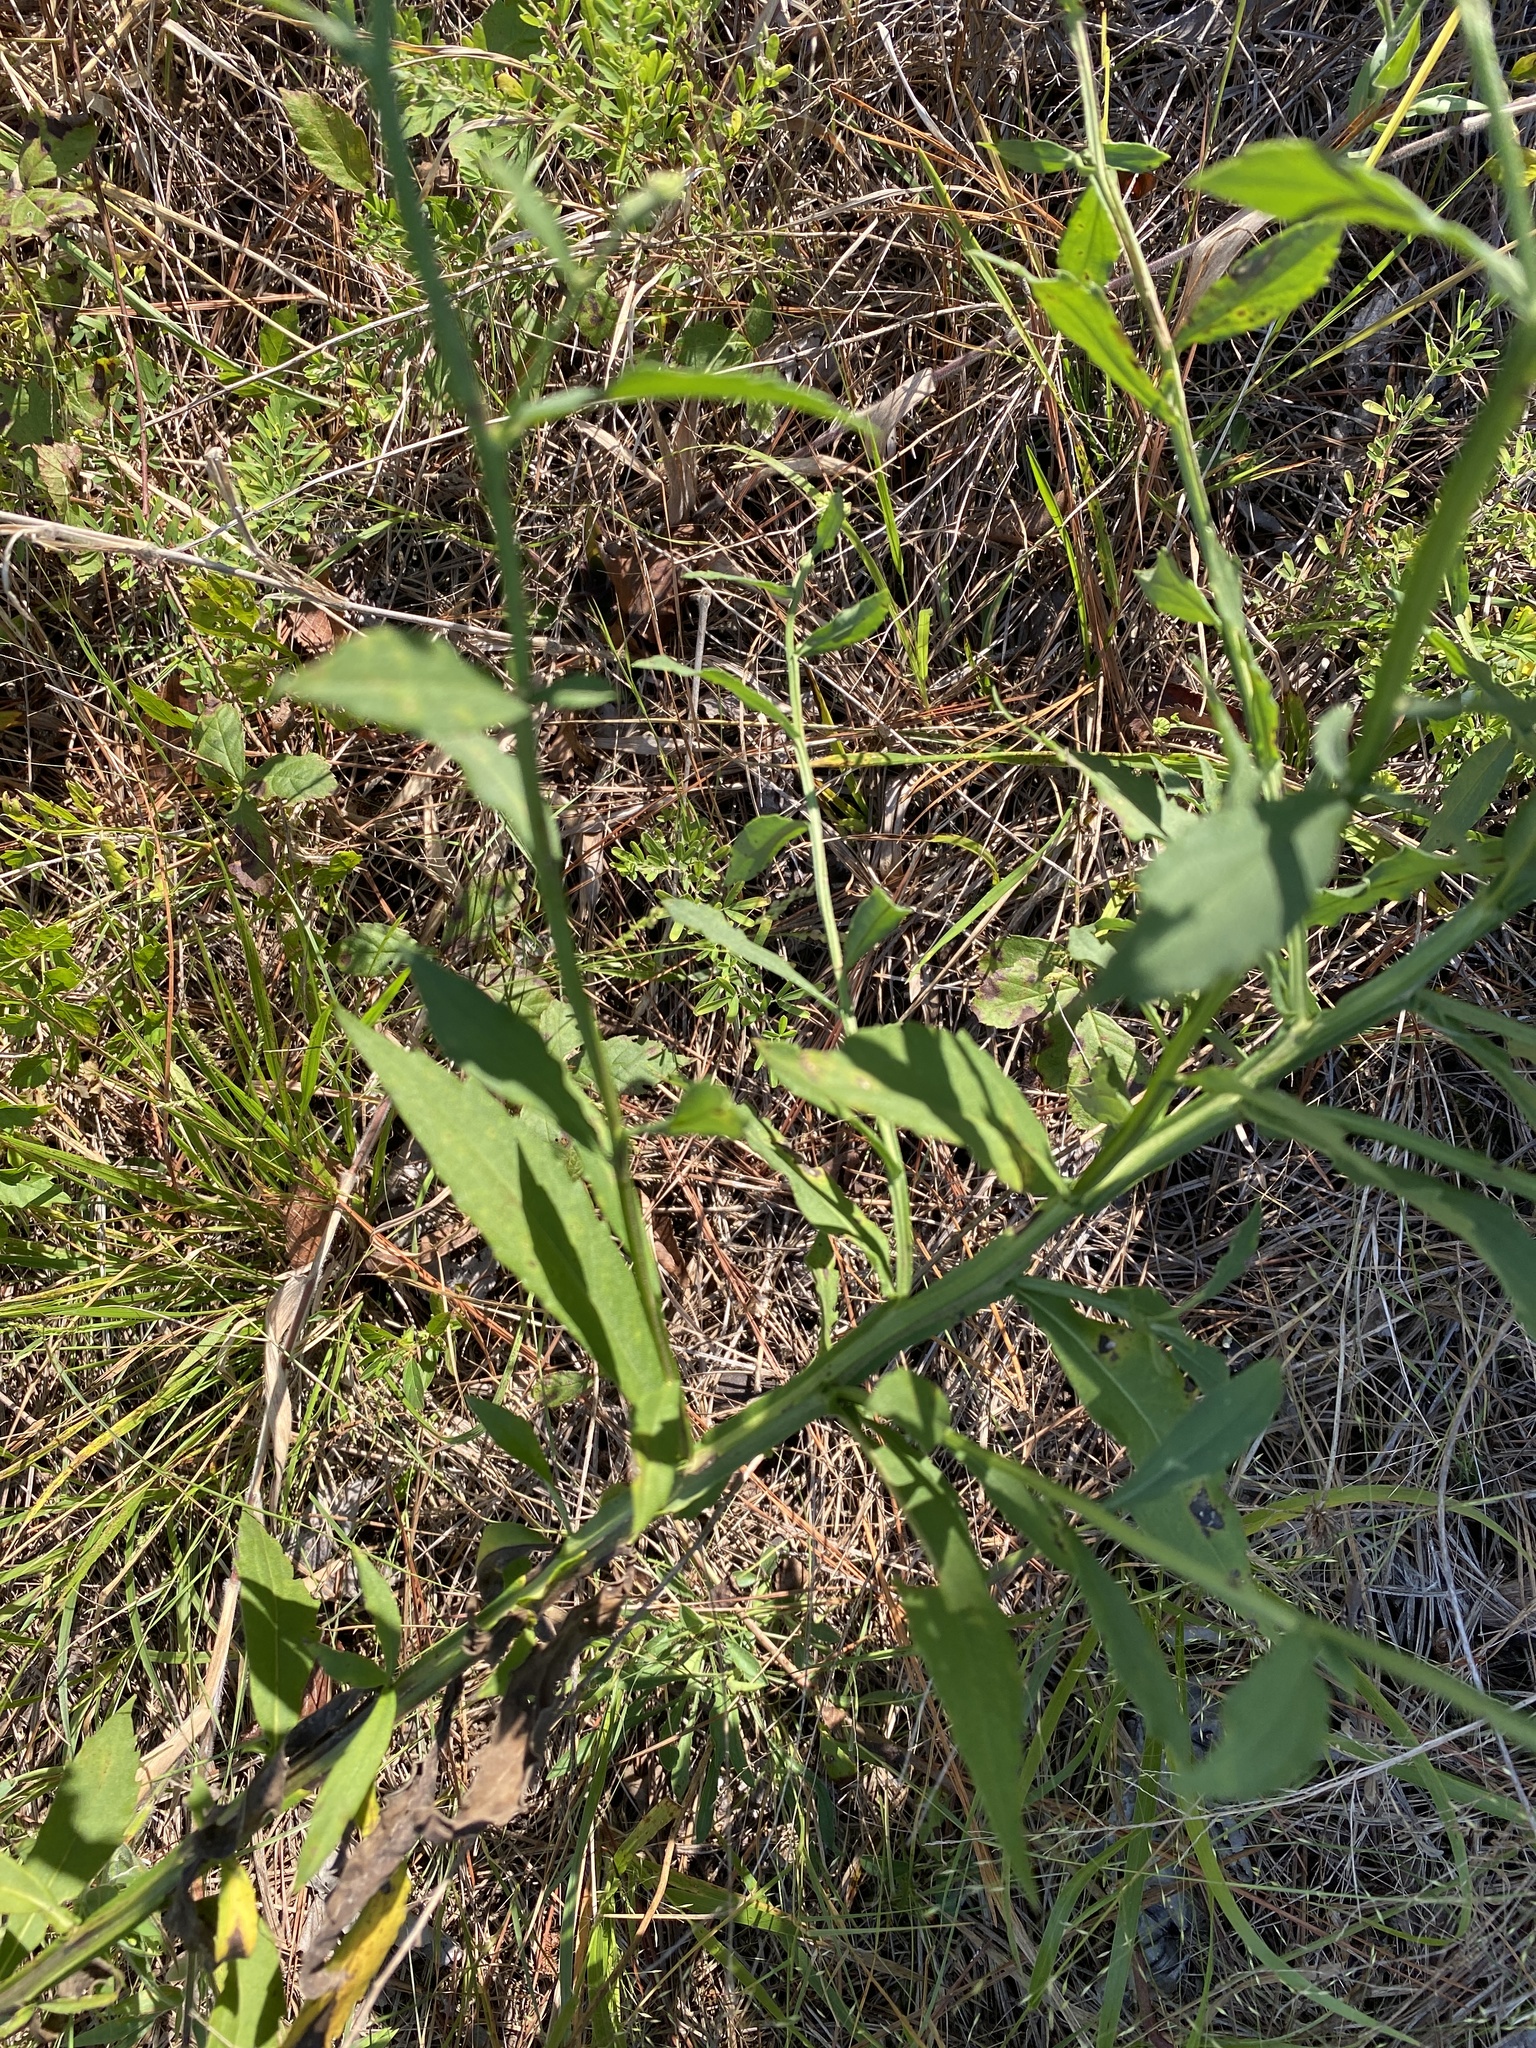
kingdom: Plantae
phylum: Tracheophyta
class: Magnoliopsida
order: Asterales
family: Asteraceae
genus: Helenium
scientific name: Helenium autumnale
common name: Sneezeweed
